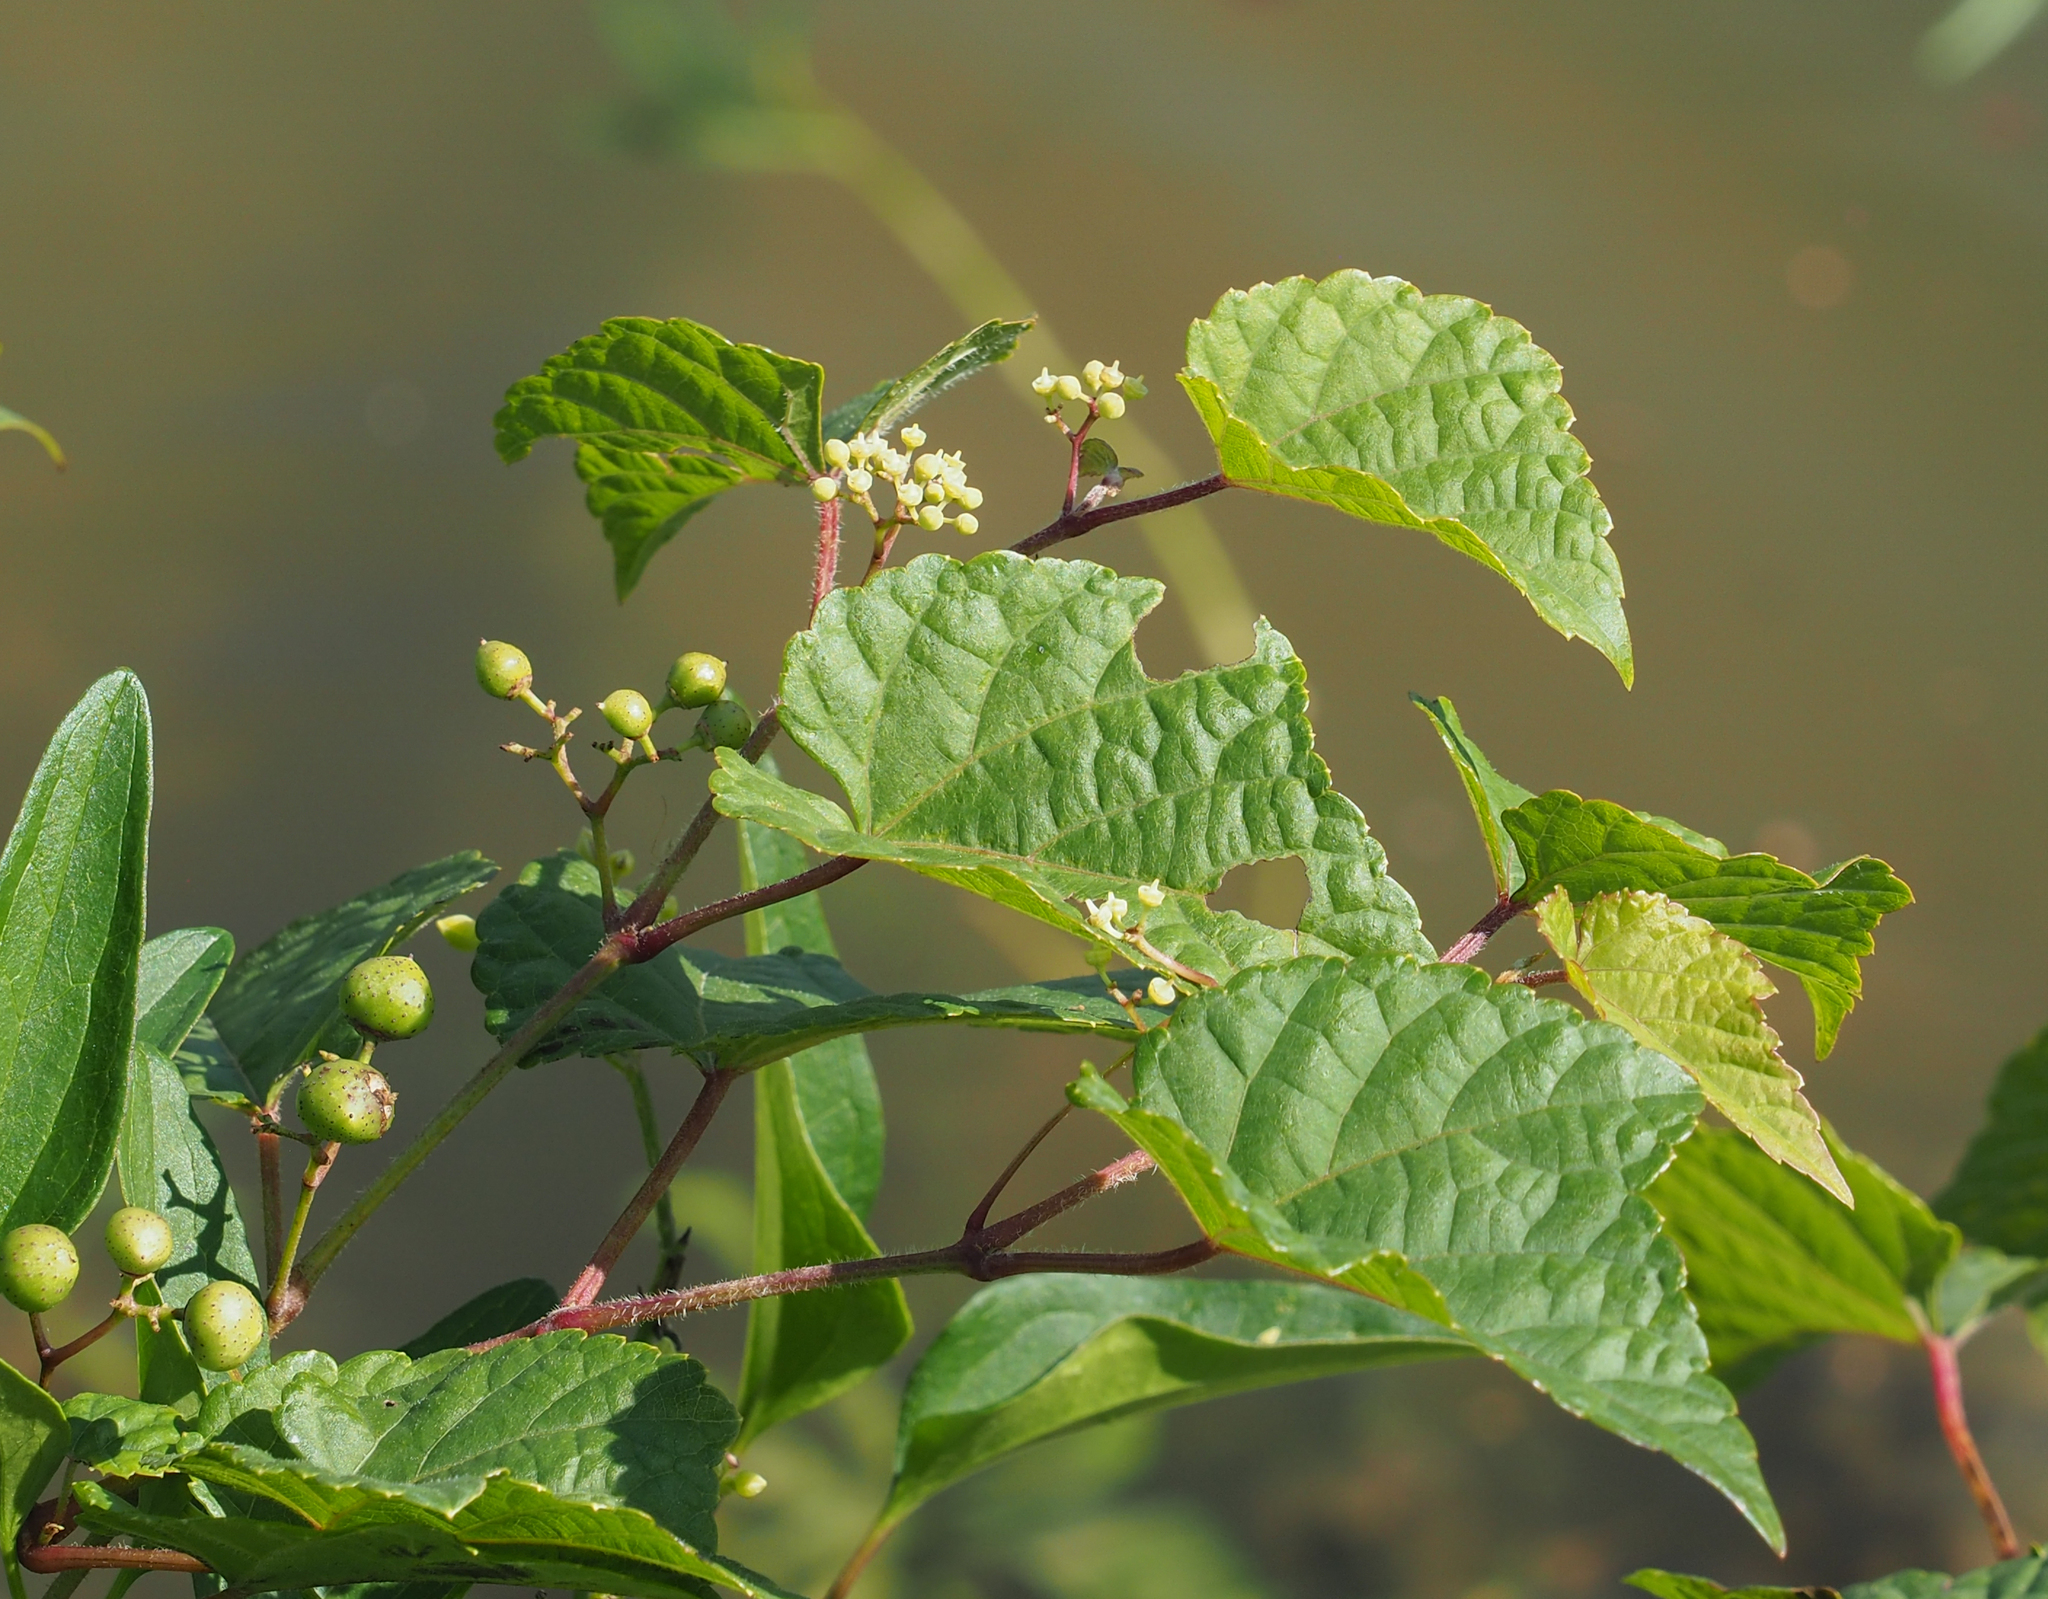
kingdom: Plantae
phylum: Tracheophyta
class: Magnoliopsida
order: Vitales
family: Vitaceae
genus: Ampelopsis
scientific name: Ampelopsis glandulosa
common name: Amur peppervine
